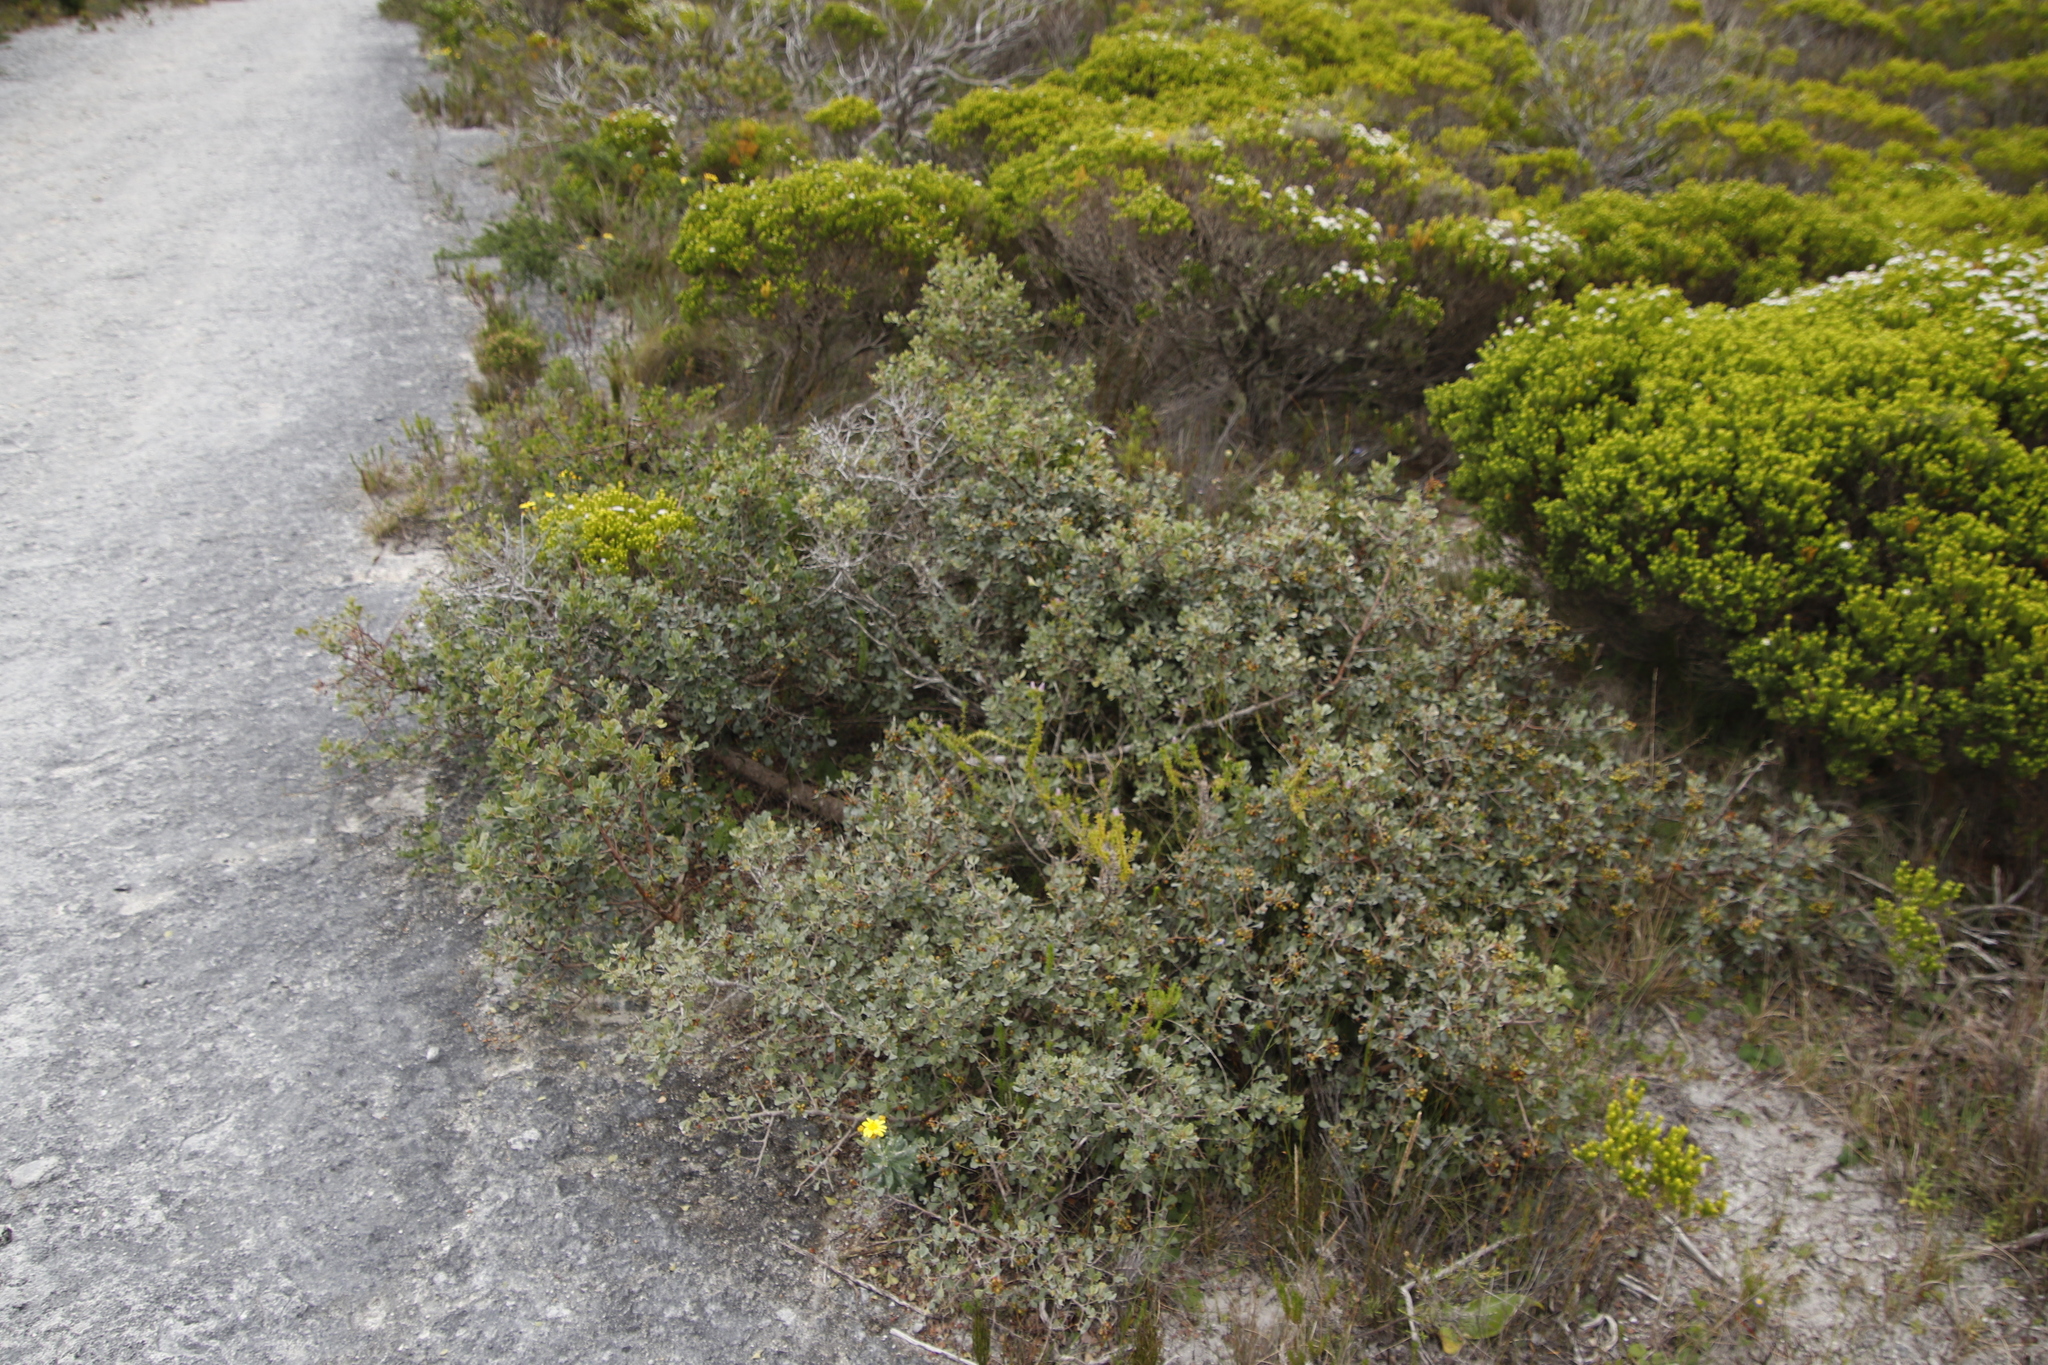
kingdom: Plantae
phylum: Tracheophyta
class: Magnoliopsida
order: Sapindales
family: Anacardiaceae
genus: Searsia
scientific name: Searsia glauca
